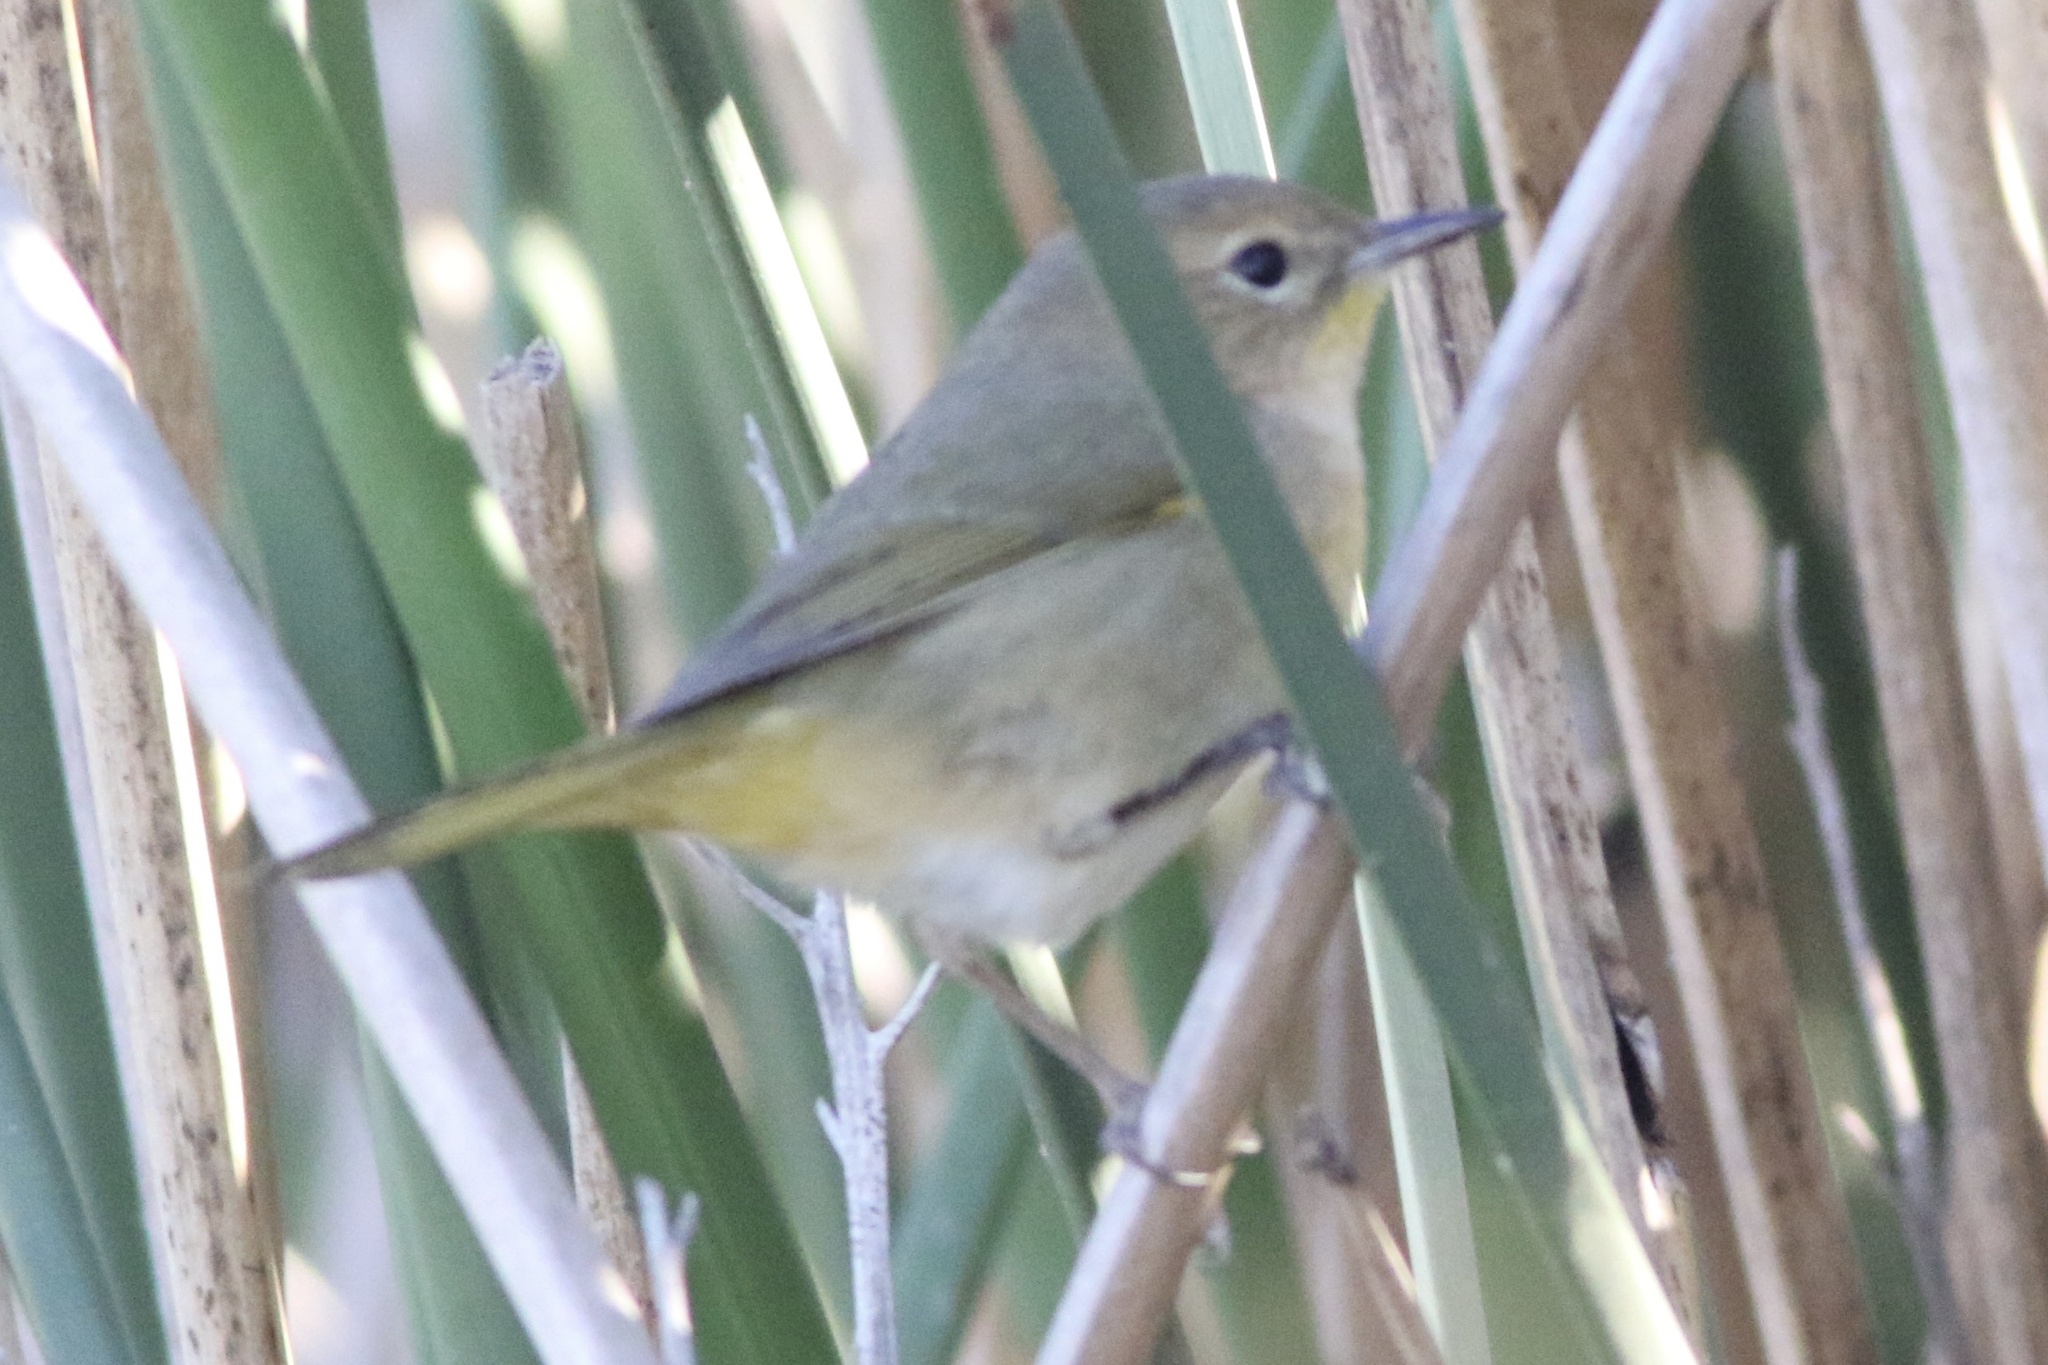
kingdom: Animalia
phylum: Chordata
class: Aves
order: Passeriformes
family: Parulidae
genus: Geothlypis
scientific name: Geothlypis trichas
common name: Common yellowthroat
